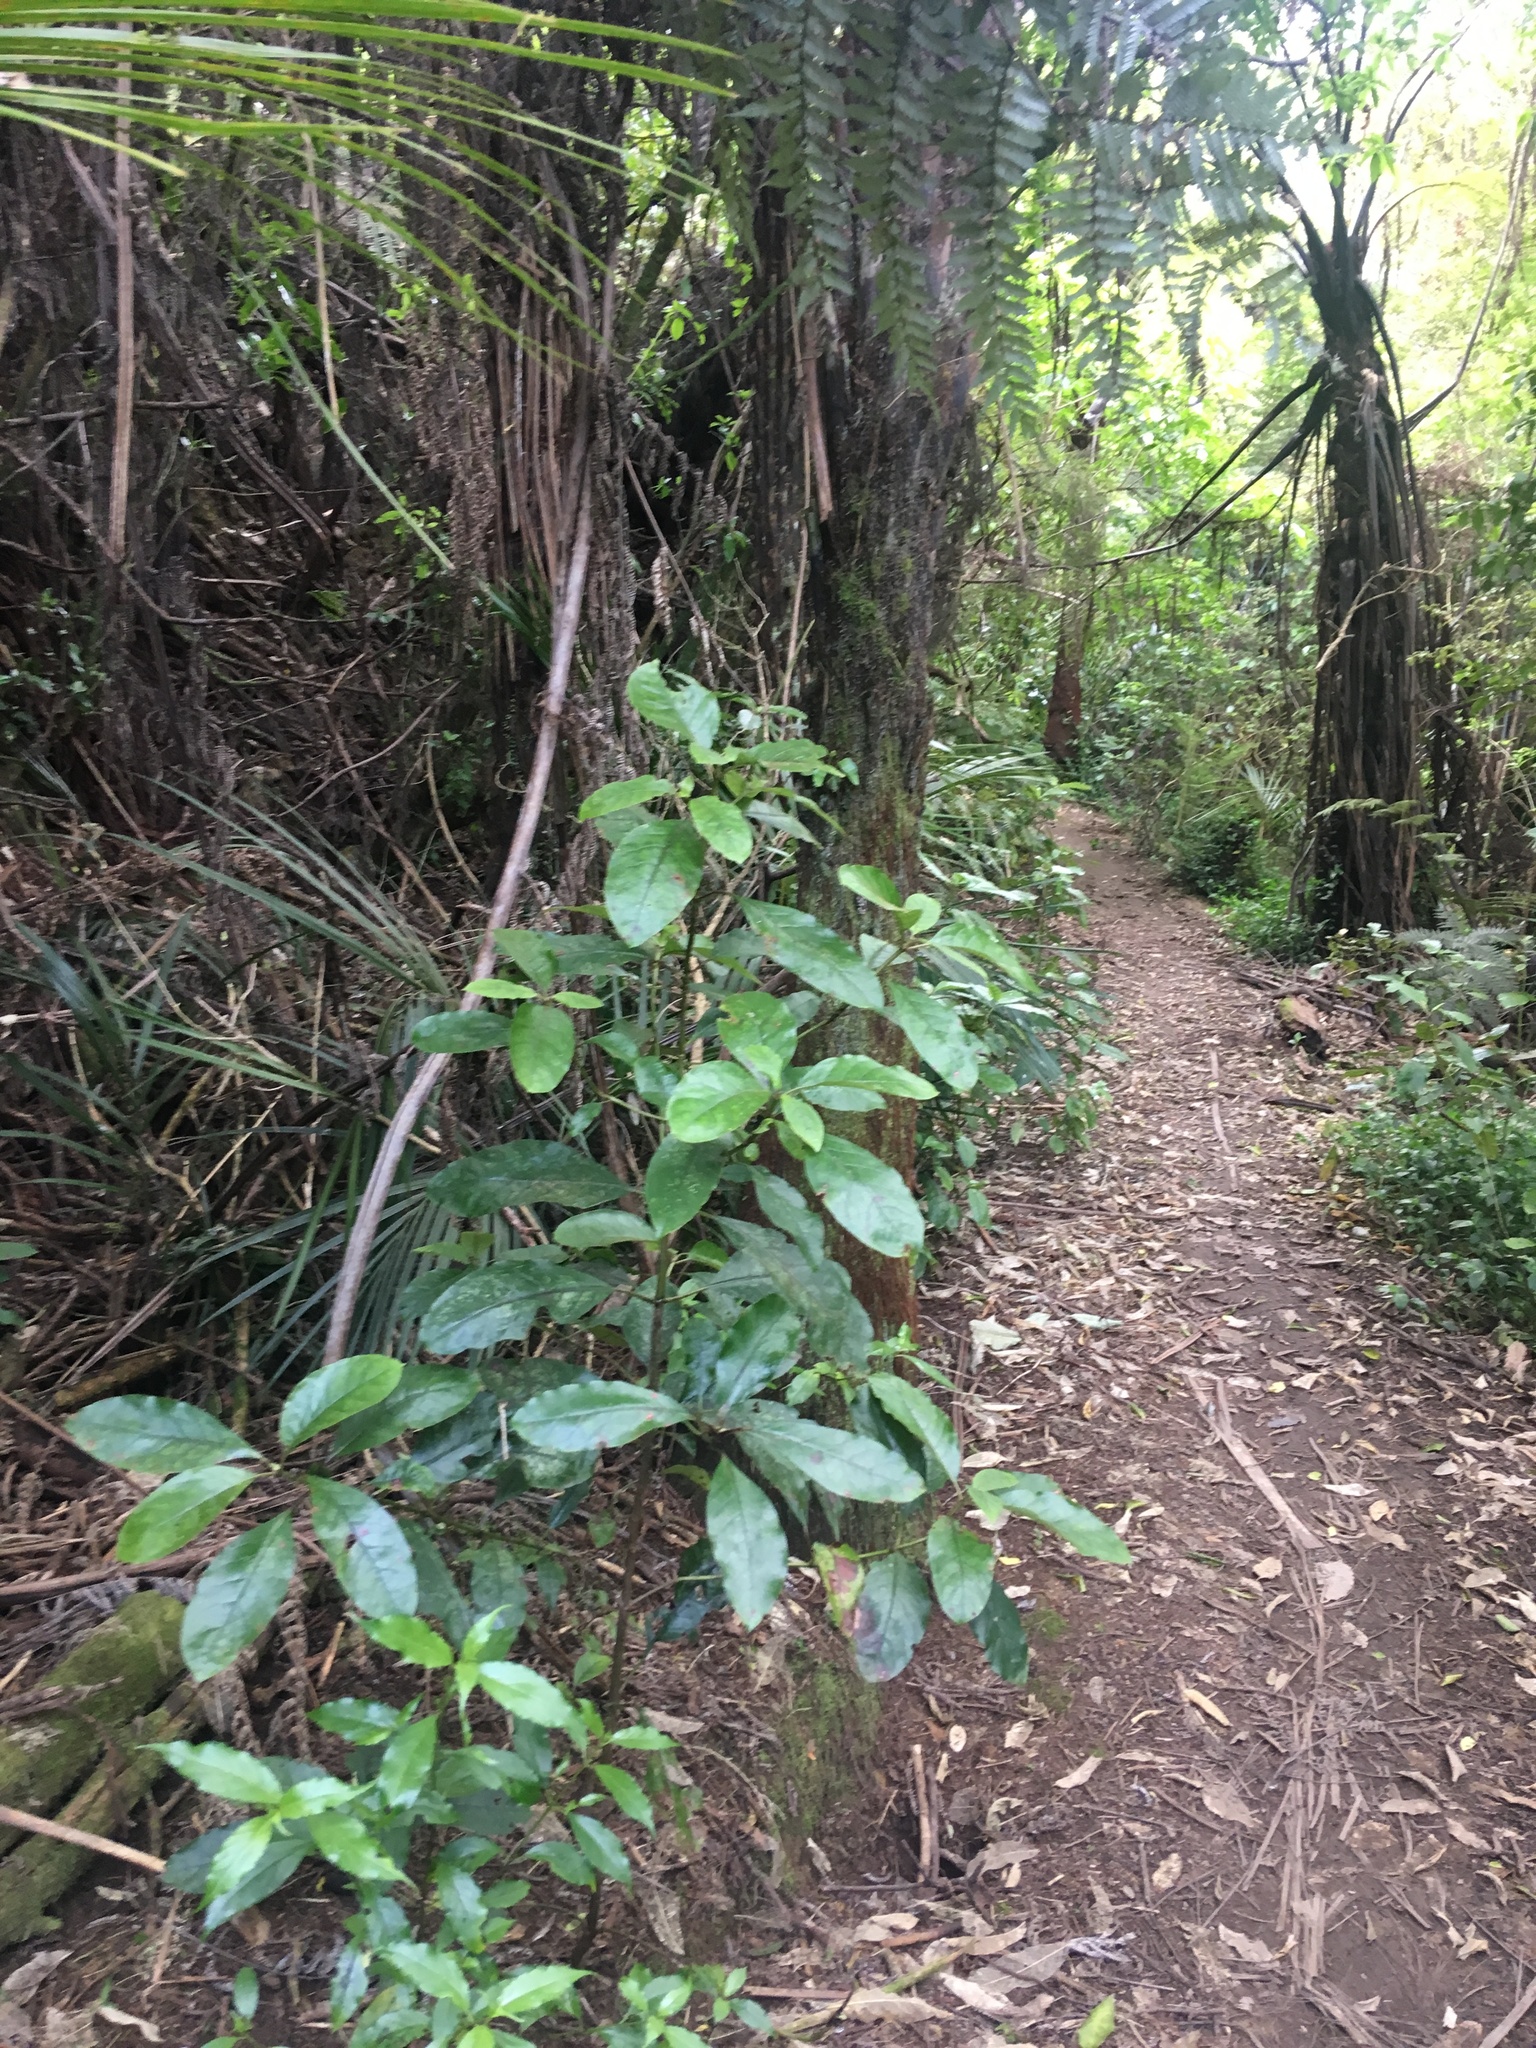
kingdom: Plantae
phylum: Tracheophyta
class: Magnoliopsida
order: Gentianales
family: Rubiaceae
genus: Coprosma
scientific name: Coprosma autumnalis
